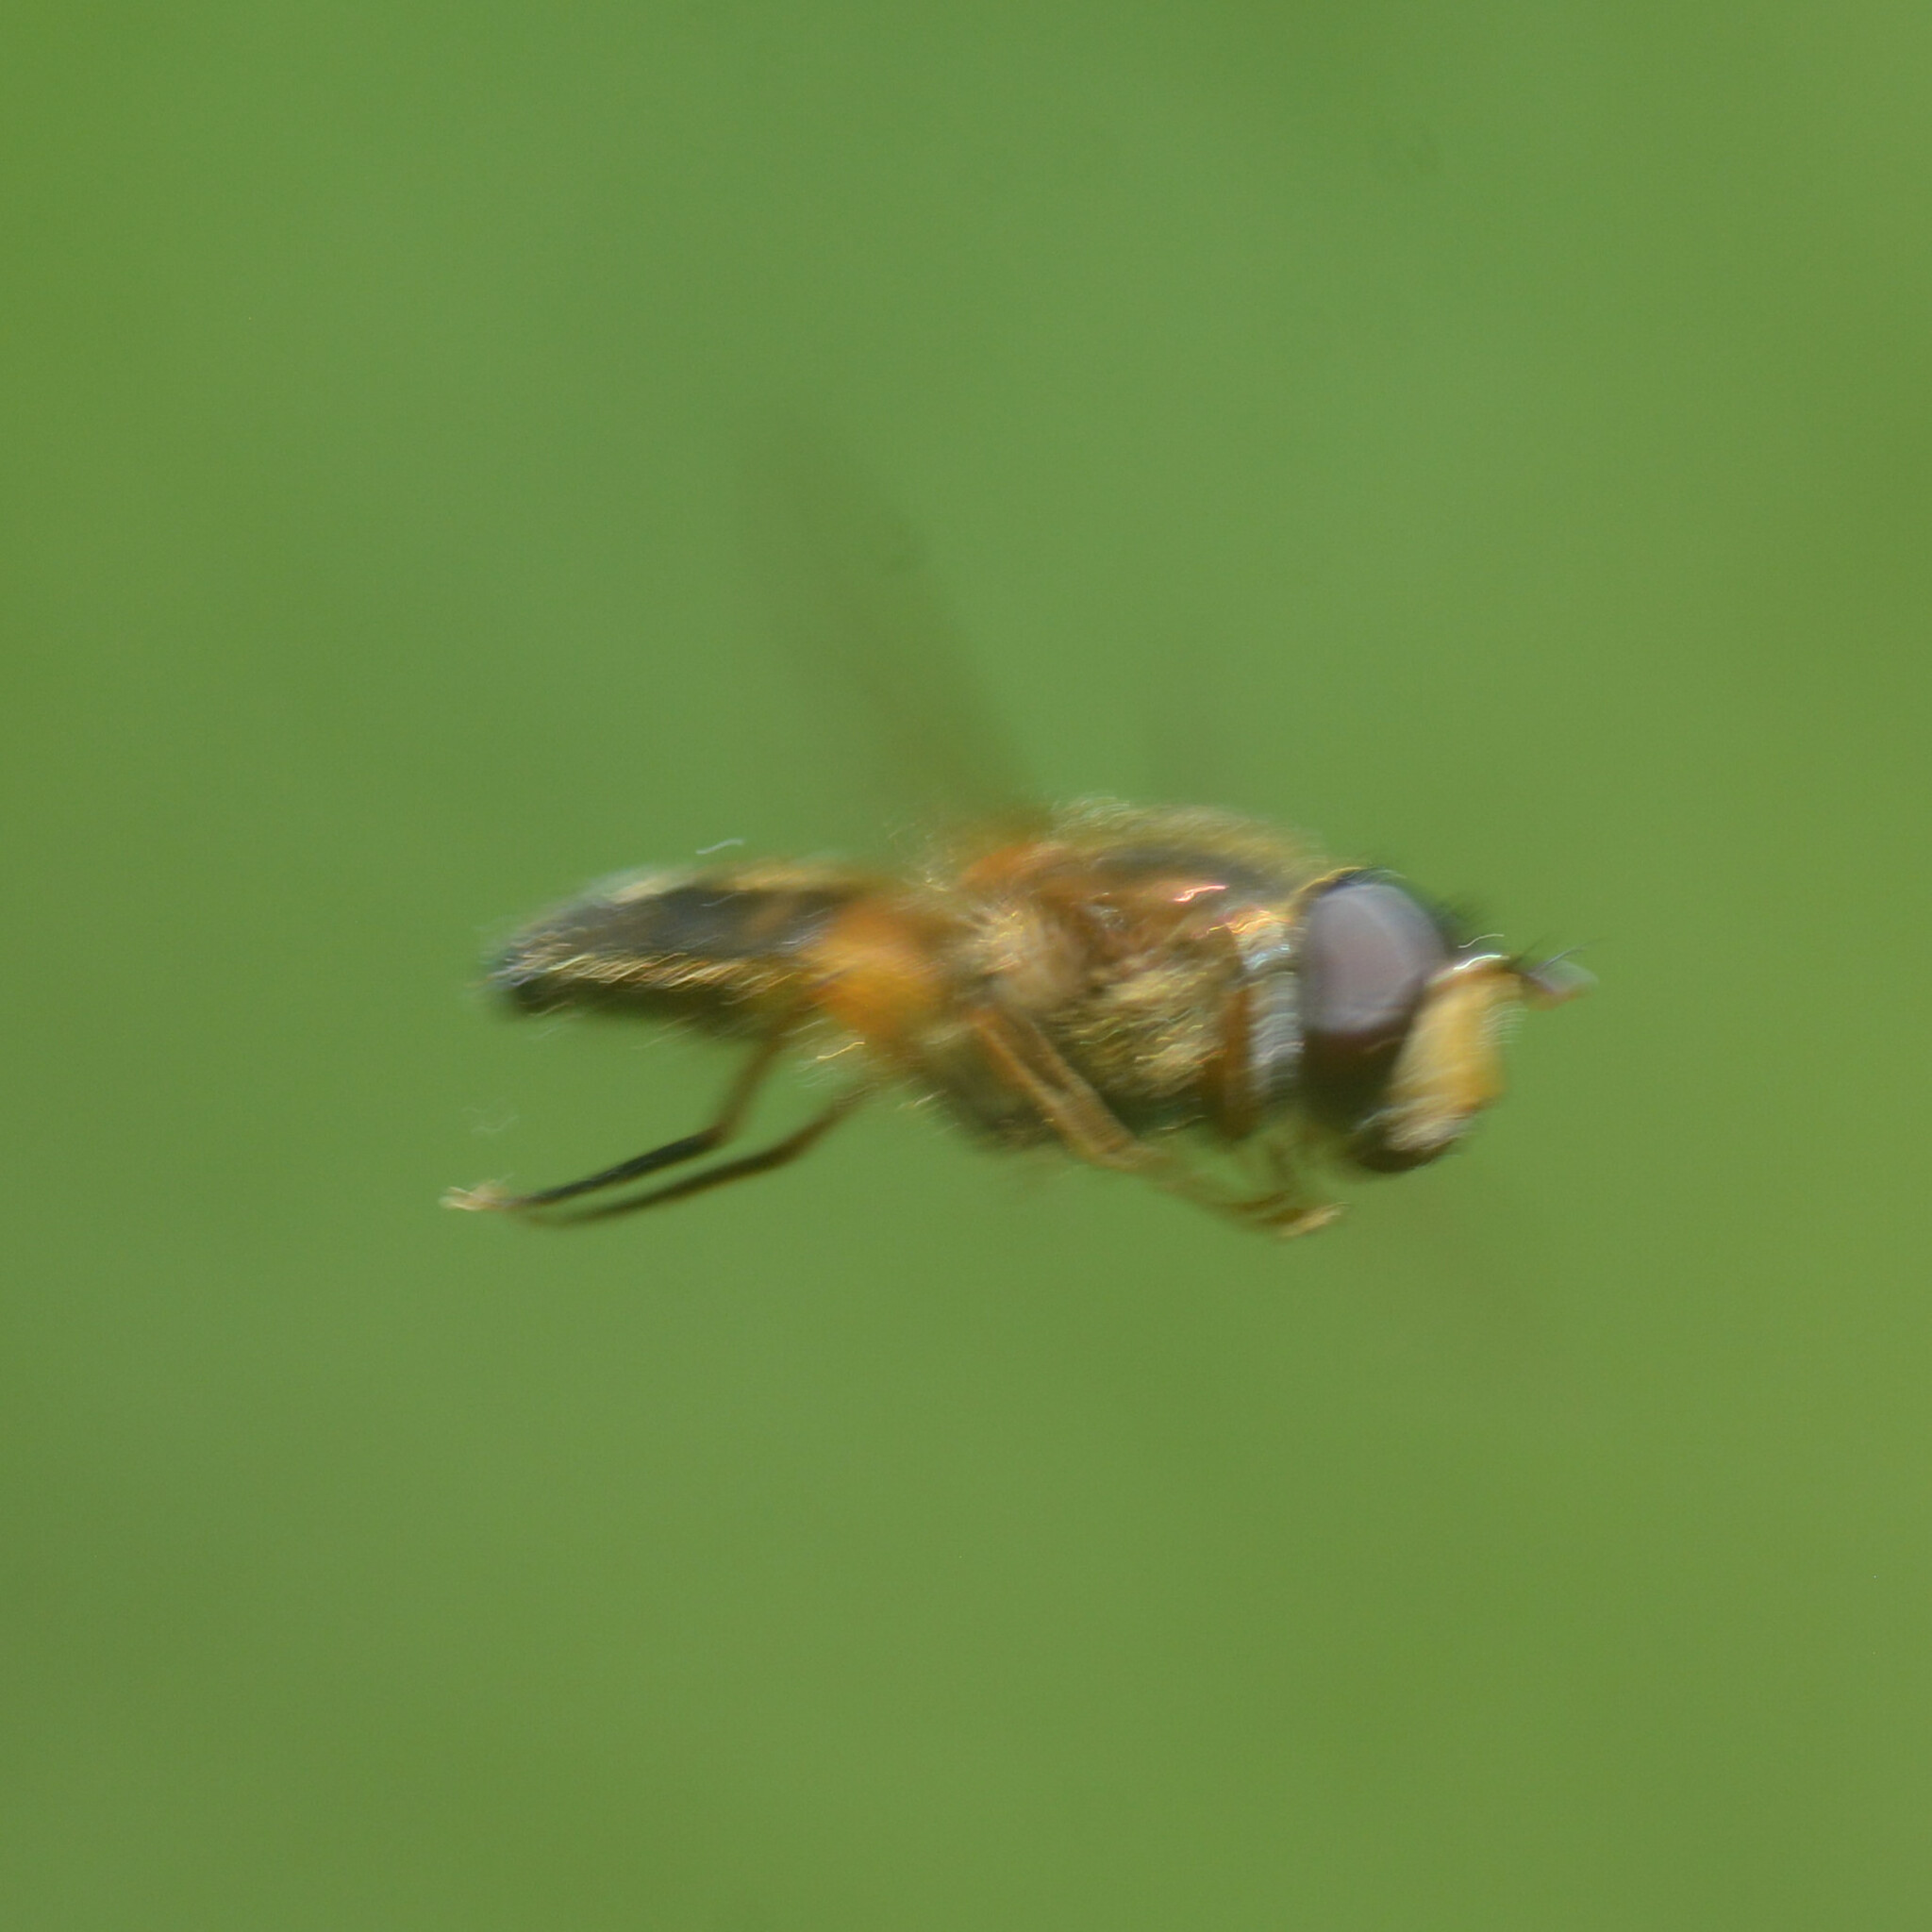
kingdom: Animalia
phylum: Arthropoda
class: Insecta
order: Diptera
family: Syrphidae
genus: Epistrophe
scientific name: Epistrophe eligans
